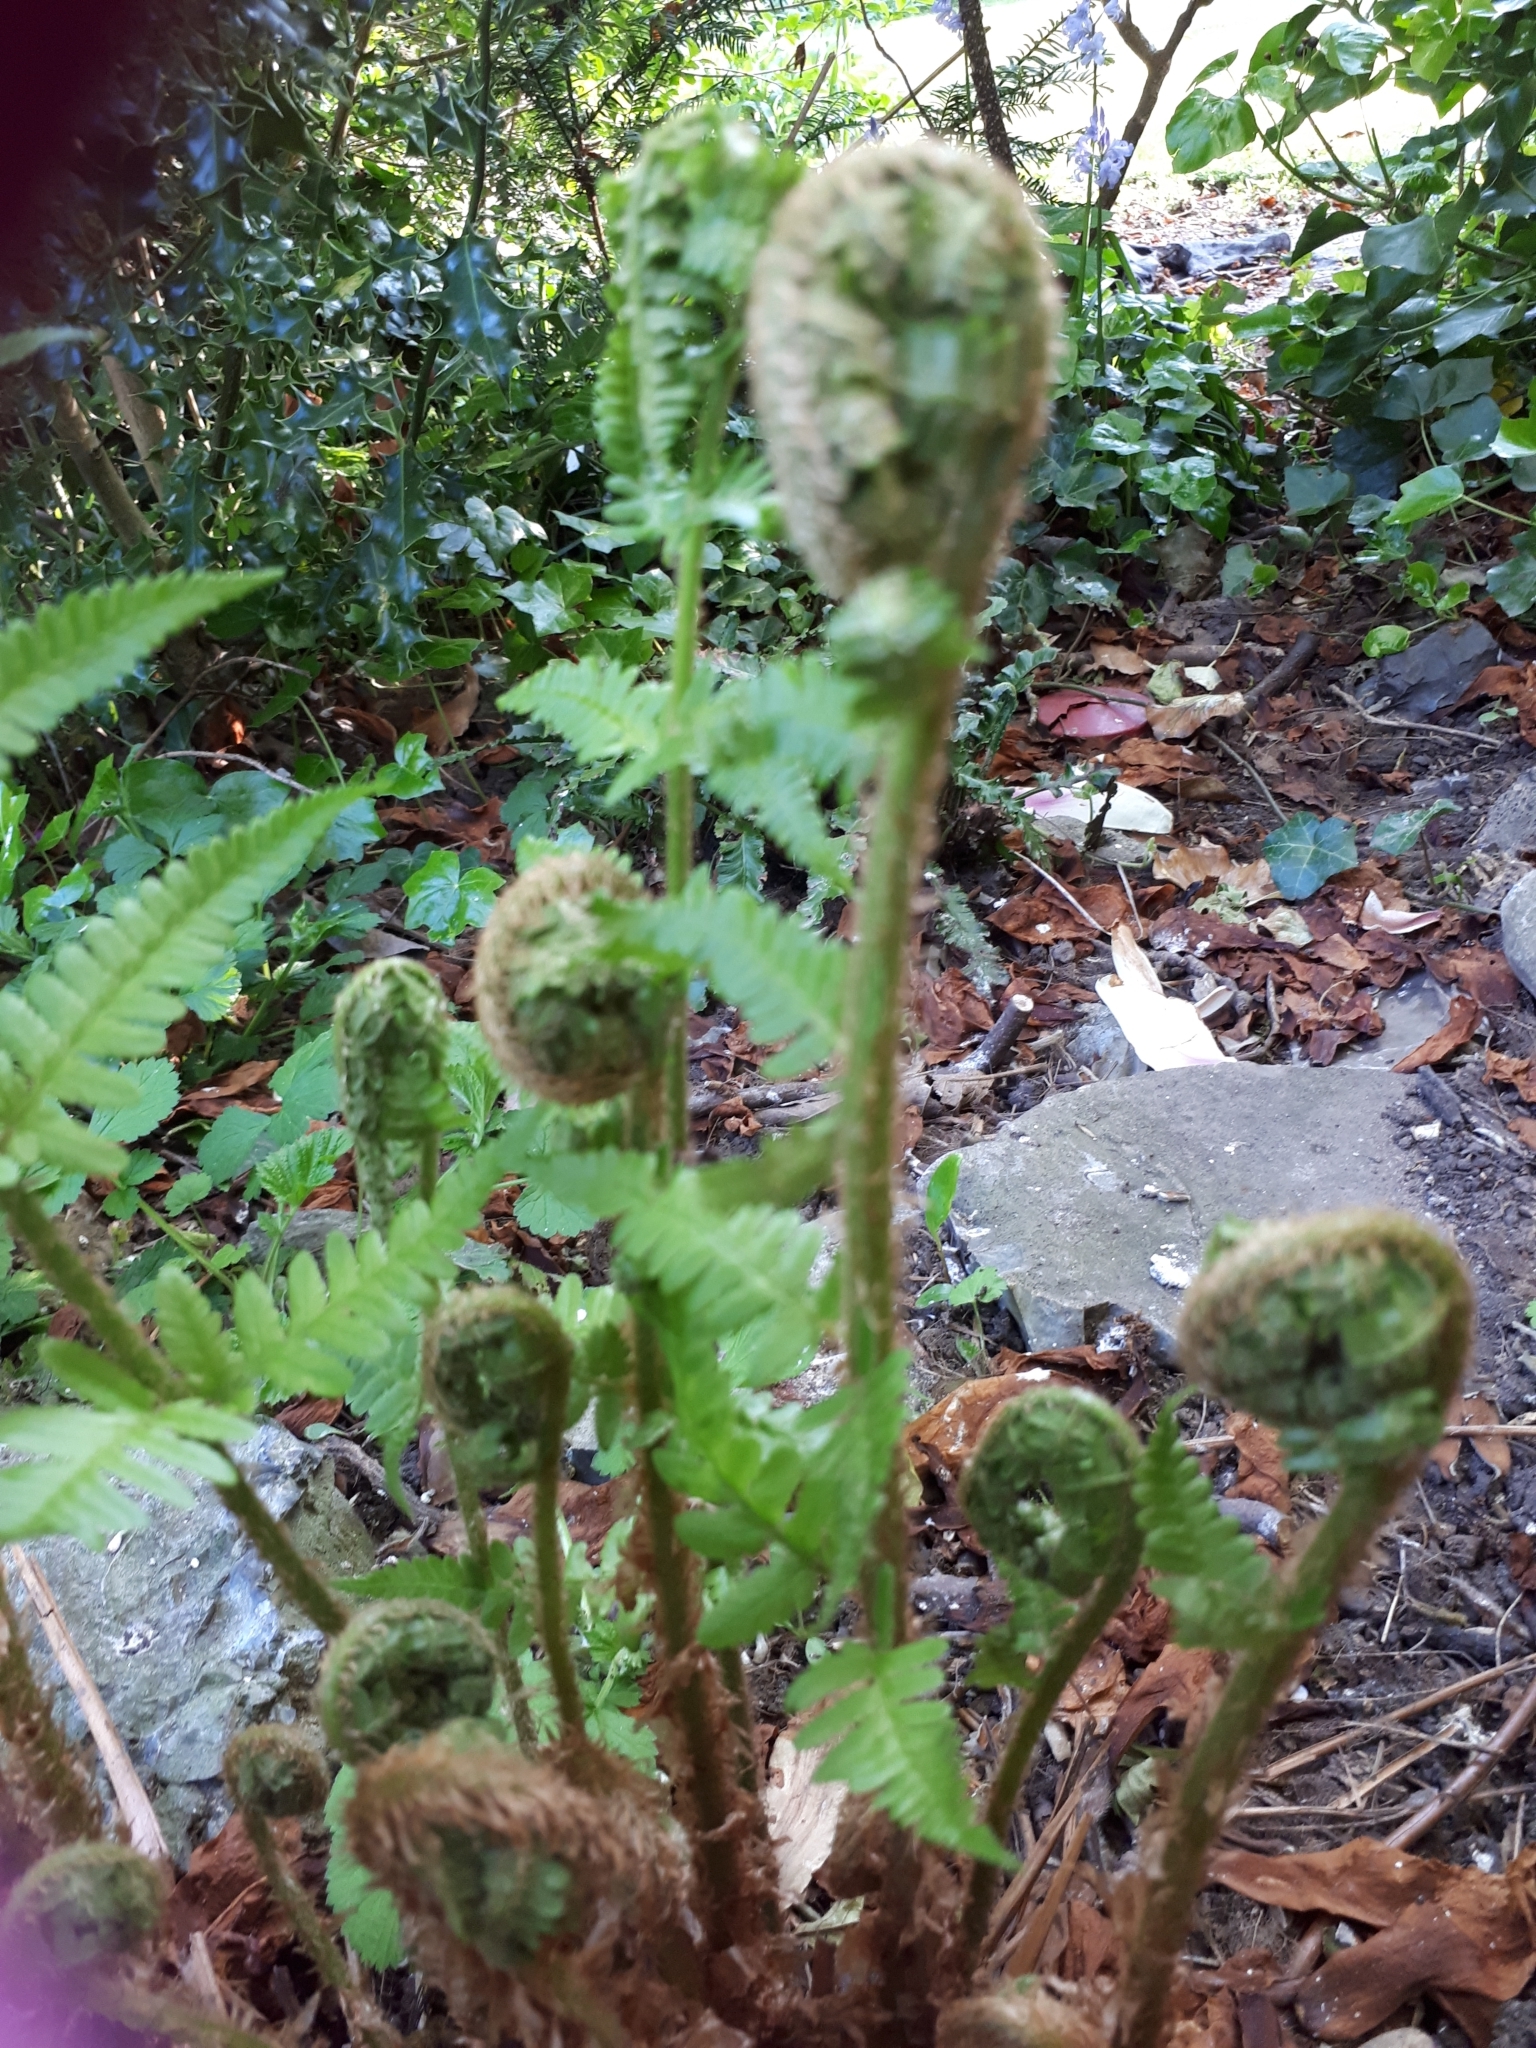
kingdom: Plantae
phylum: Tracheophyta
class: Polypodiopsida
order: Polypodiales
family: Dryopteridaceae
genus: Dryopteris
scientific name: Dryopteris filix-mas
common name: Male fern
